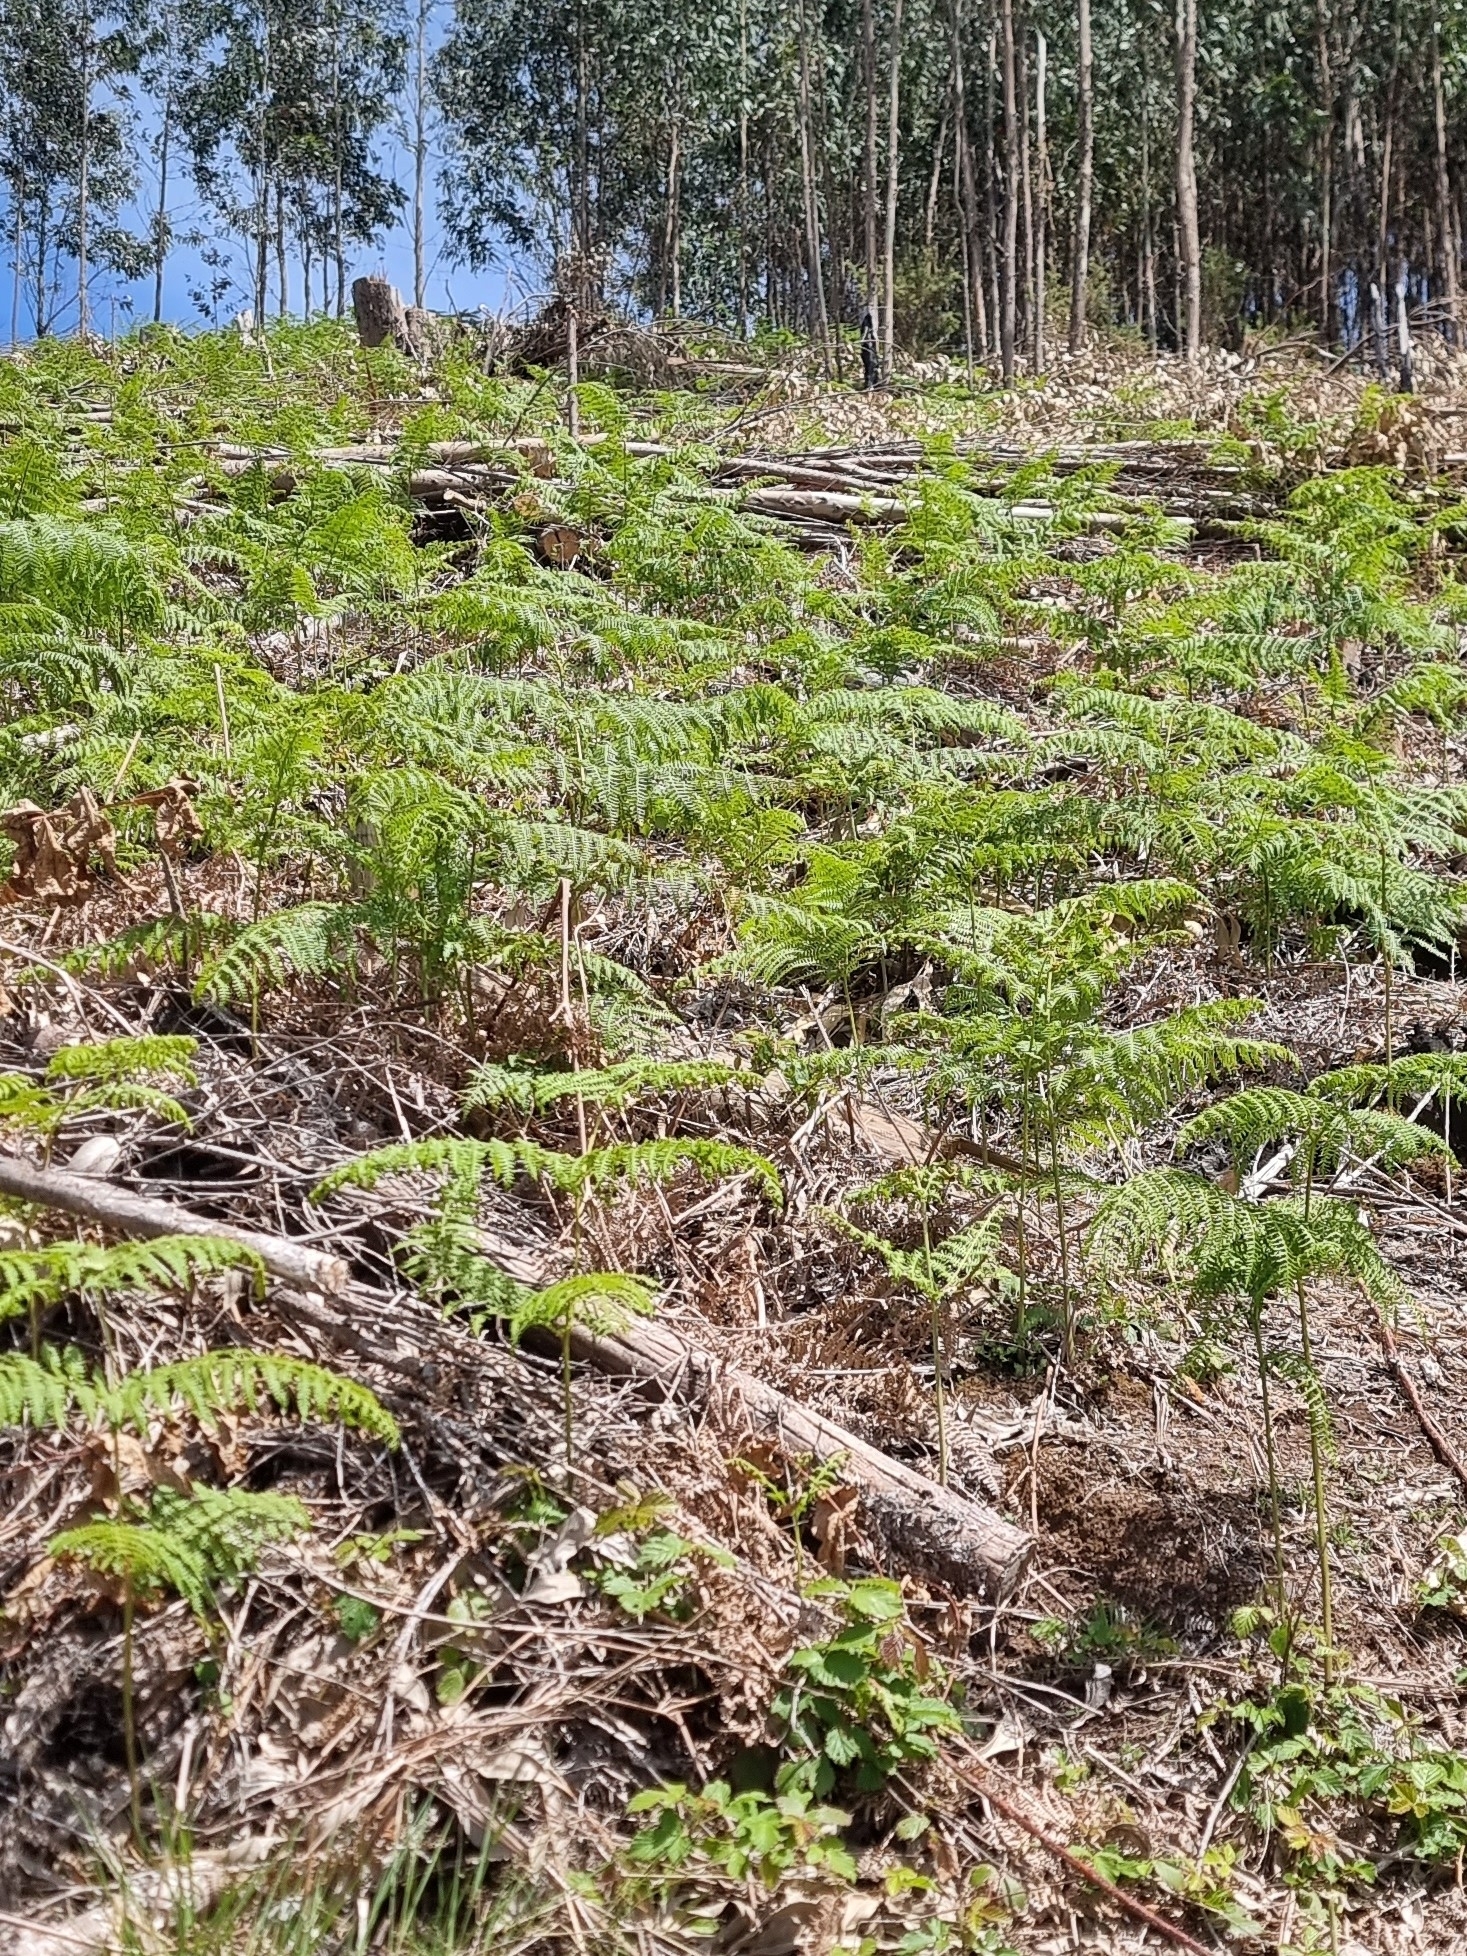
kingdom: Plantae
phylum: Tracheophyta
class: Polypodiopsida
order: Polypodiales
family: Dennstaedtiaceae
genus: Pteridium
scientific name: Pteridium aquilinum
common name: Bracken
